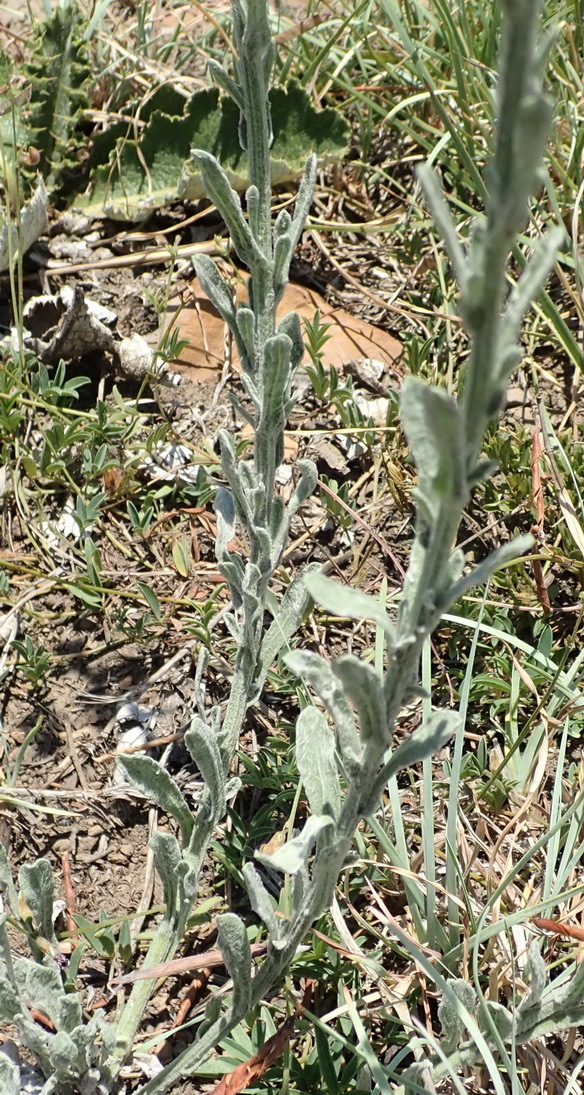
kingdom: Plantae
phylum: Tracheophyta
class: Magnoliopsida
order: Asterales
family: Asteraceae
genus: Nidorella
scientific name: Nidorella hottentotica
